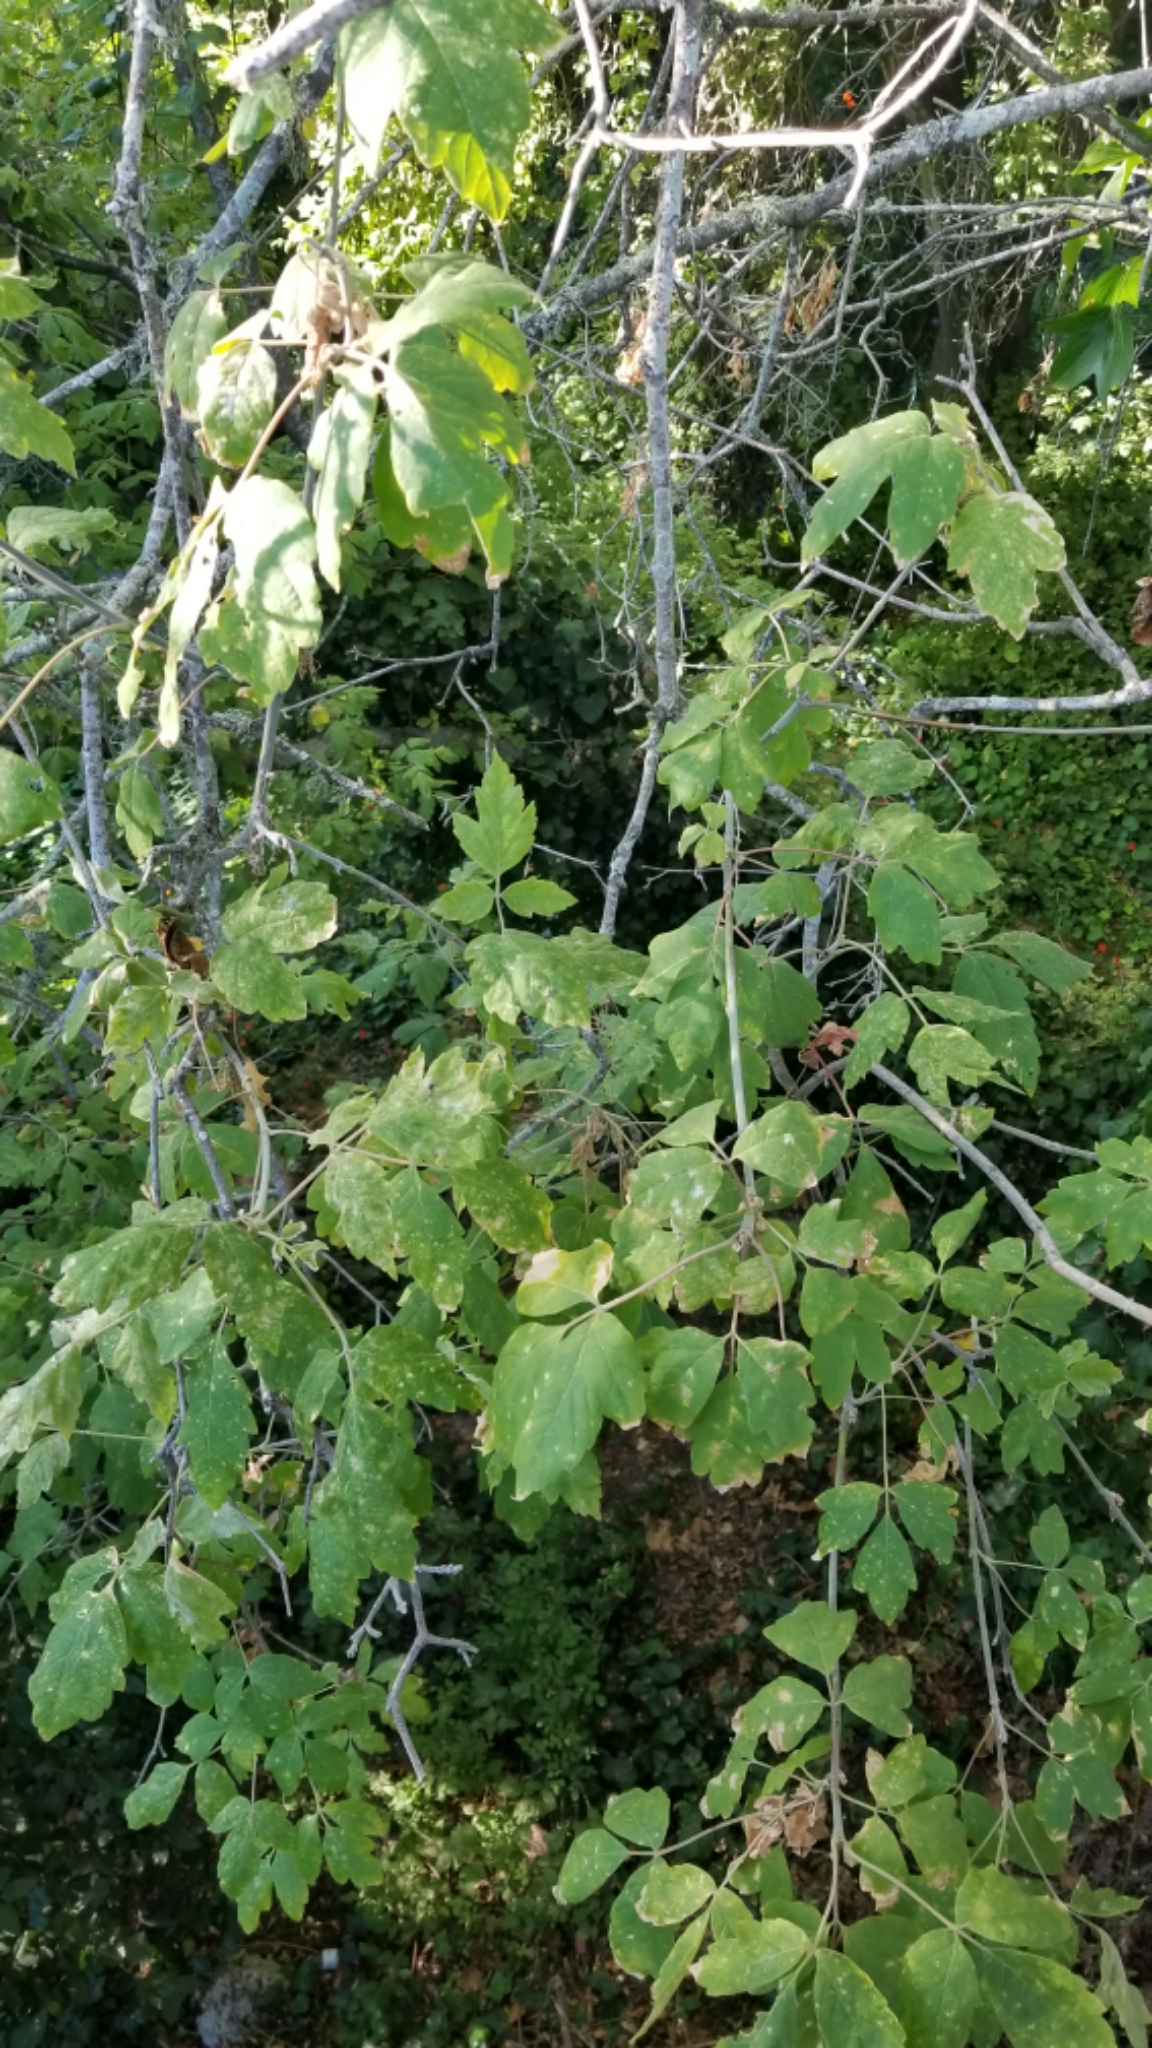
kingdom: Plantae
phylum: Tracheophyta
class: Magnoliopsida
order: Sapindales
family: Sapindaceae
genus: Acer
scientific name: Acer negundo
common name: Ashleaf maple
